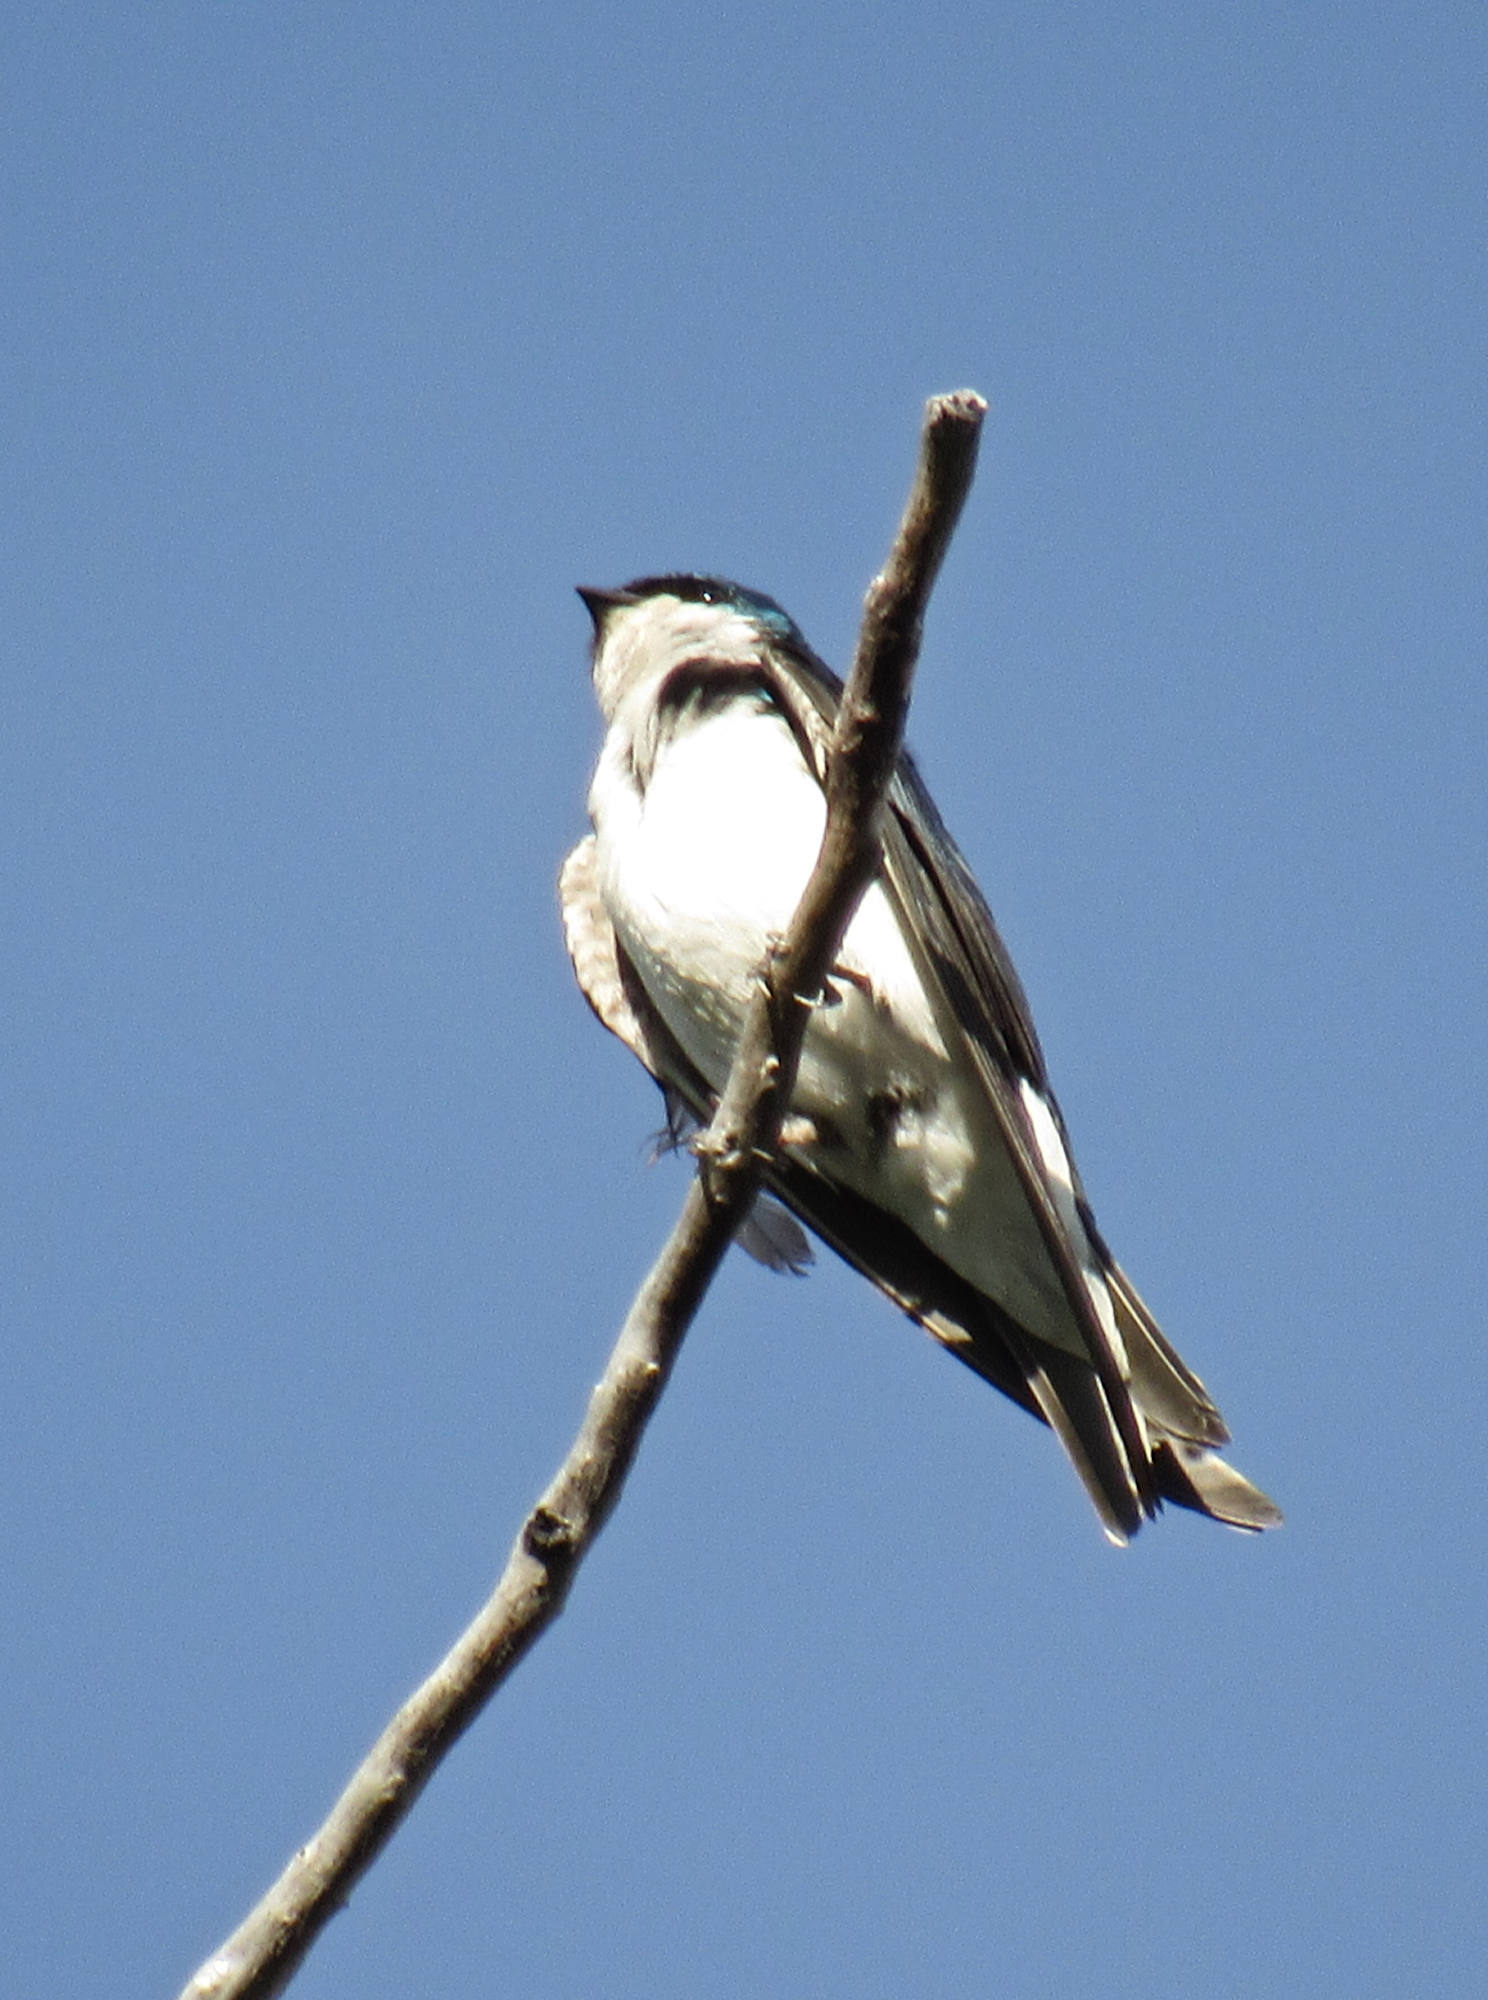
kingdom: Animalia
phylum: Chordata
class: Aves
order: Passeriformes
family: Hirundinidae
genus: Tachycineta
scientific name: Tachycineta bicolor
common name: Tree swallow
